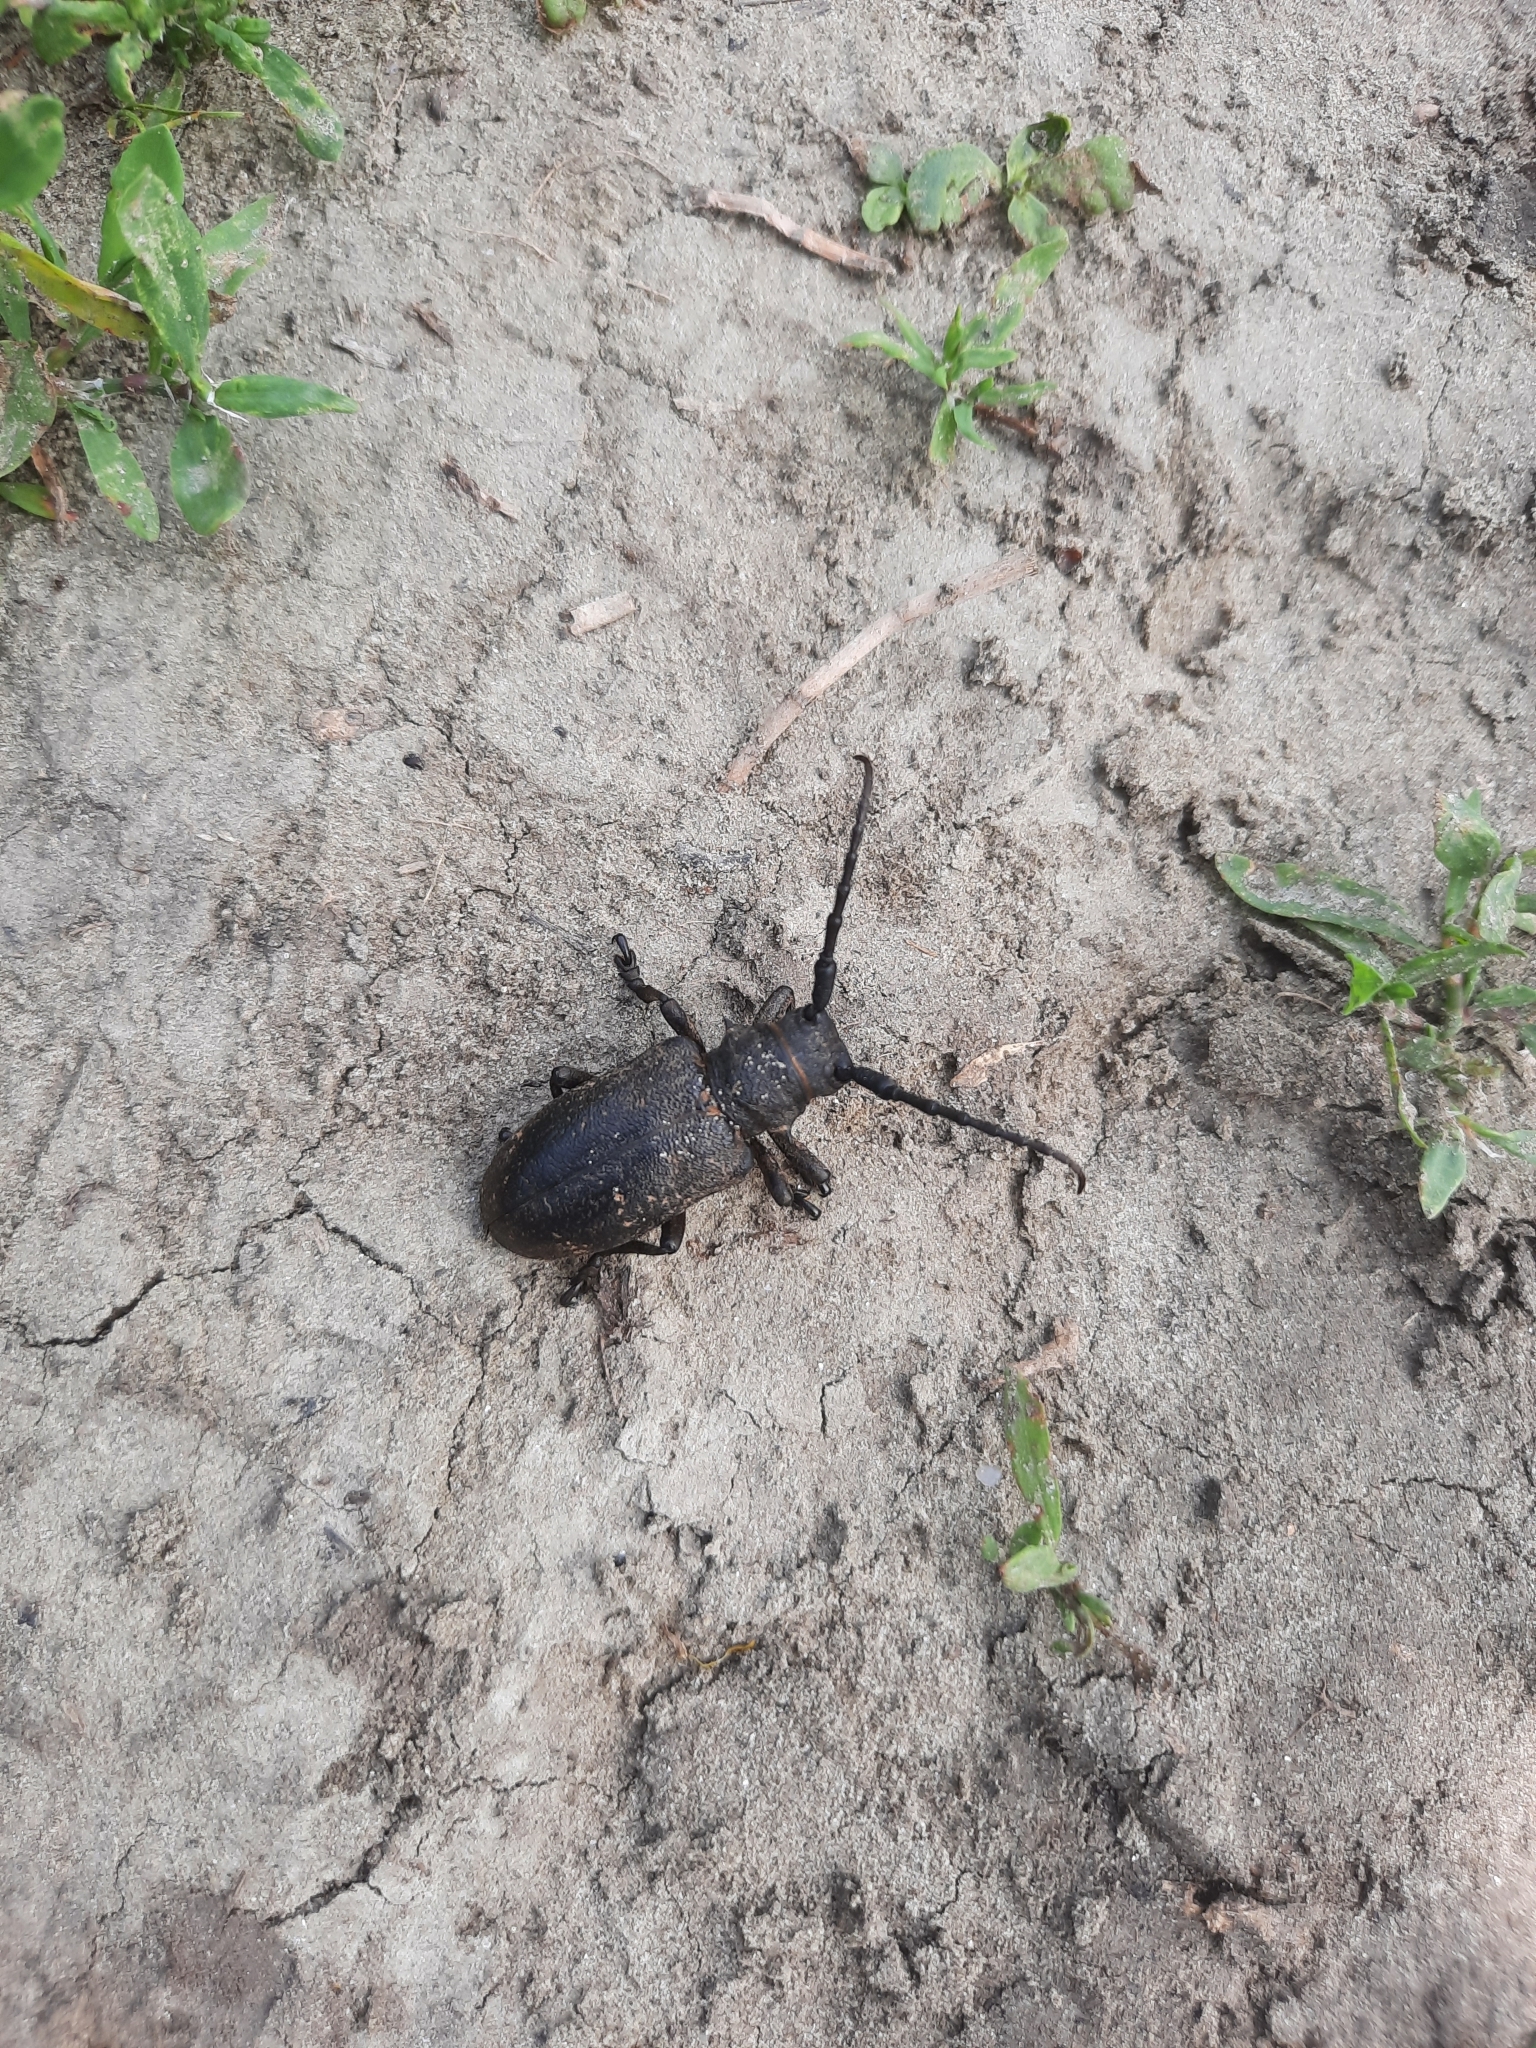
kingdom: Animalia
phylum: Arthropoda
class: Insecta
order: Coleoptera
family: Cerambycidae
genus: Lamia
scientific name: Lamia textor
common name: Weaver beetle
